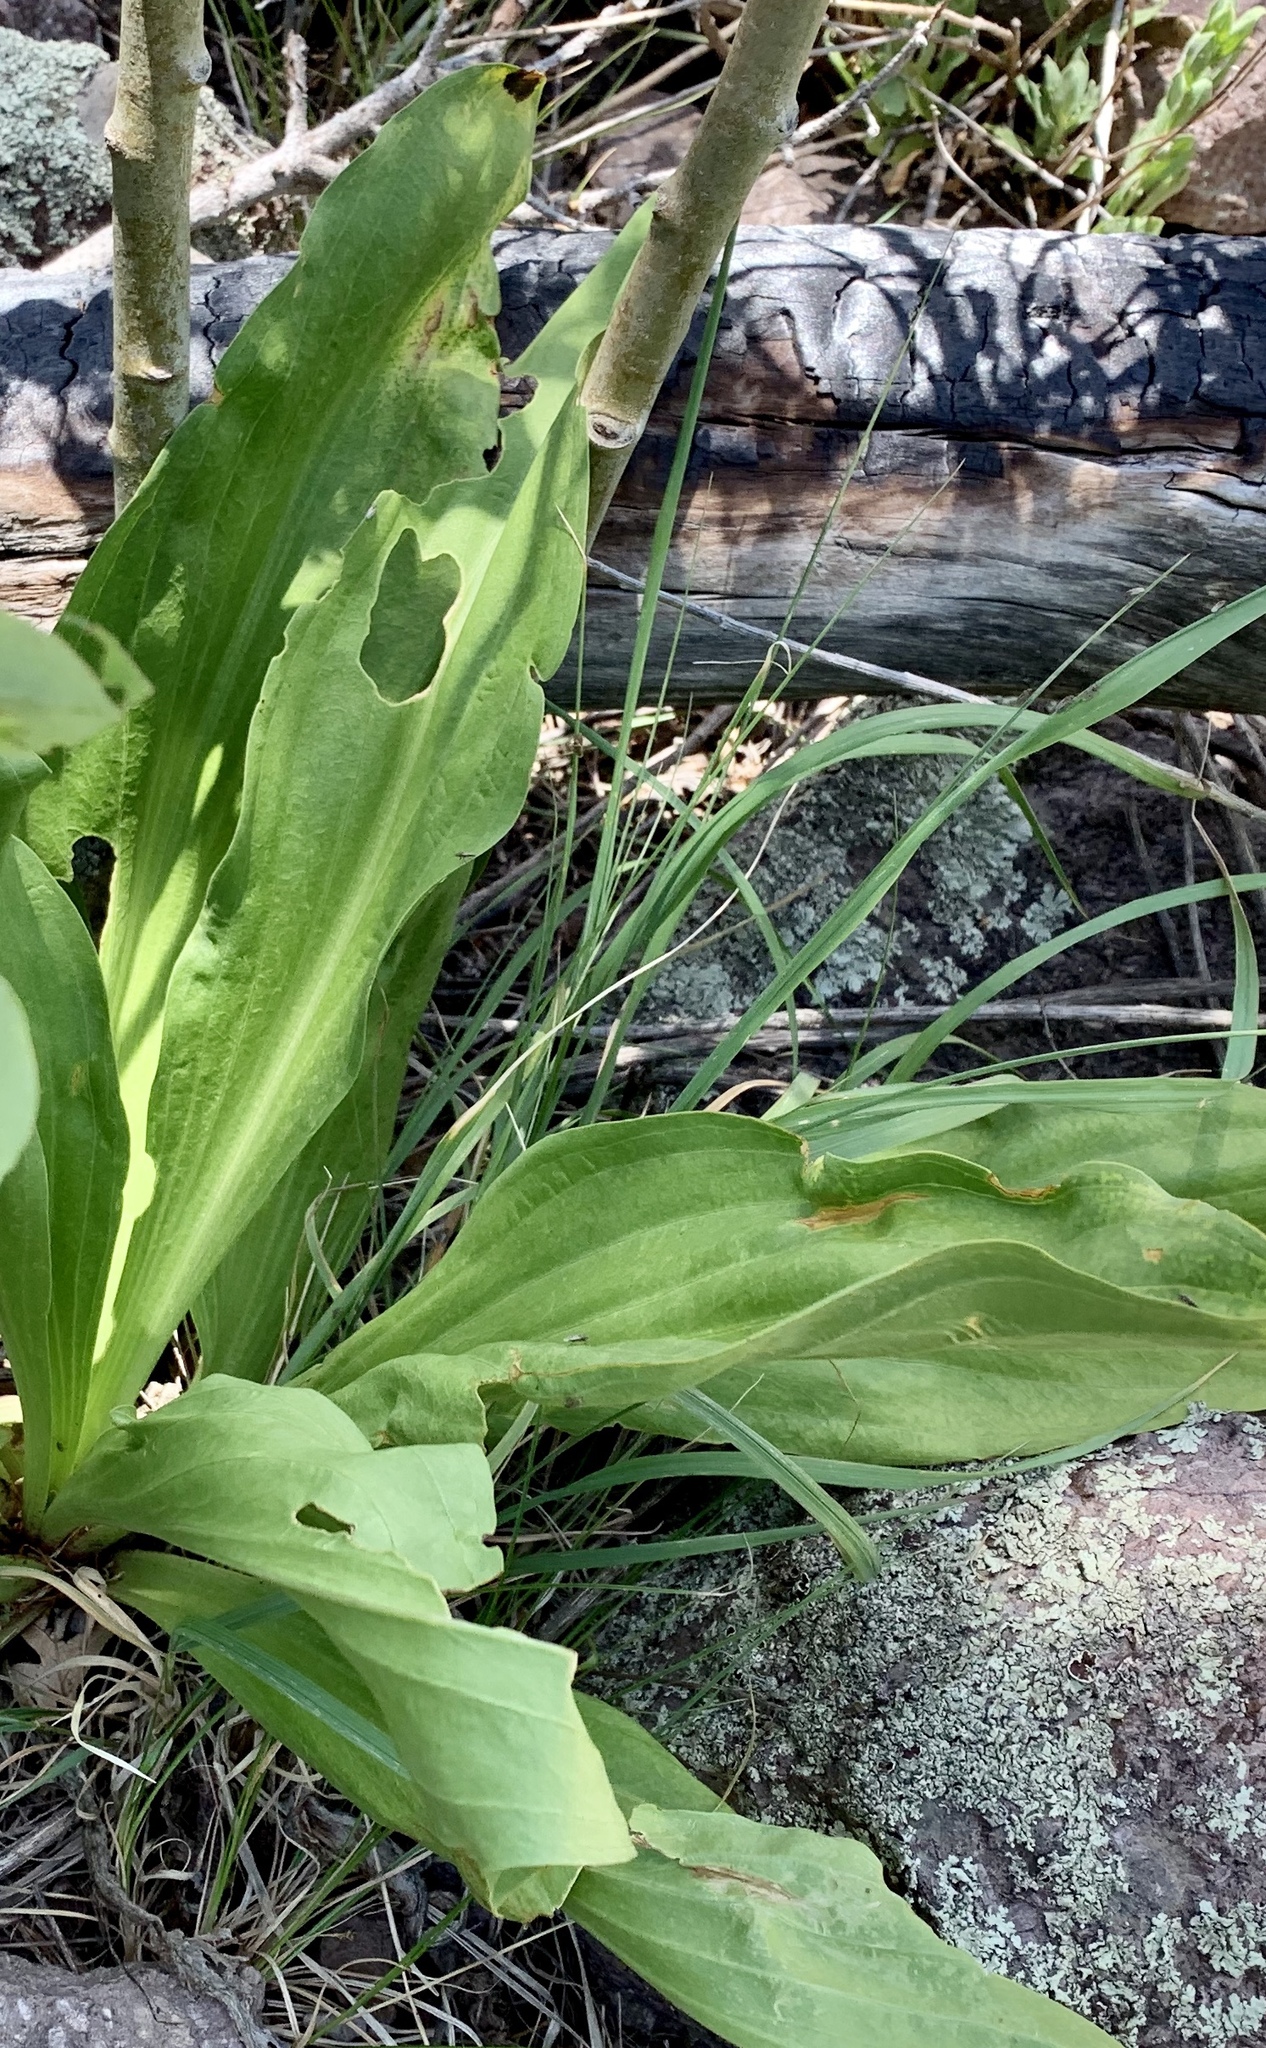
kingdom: Plantae
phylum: Tracheophyta
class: Magnoliopsida
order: Gentianales
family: Gentianaceae
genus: Frasera
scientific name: Frasera speciosa
